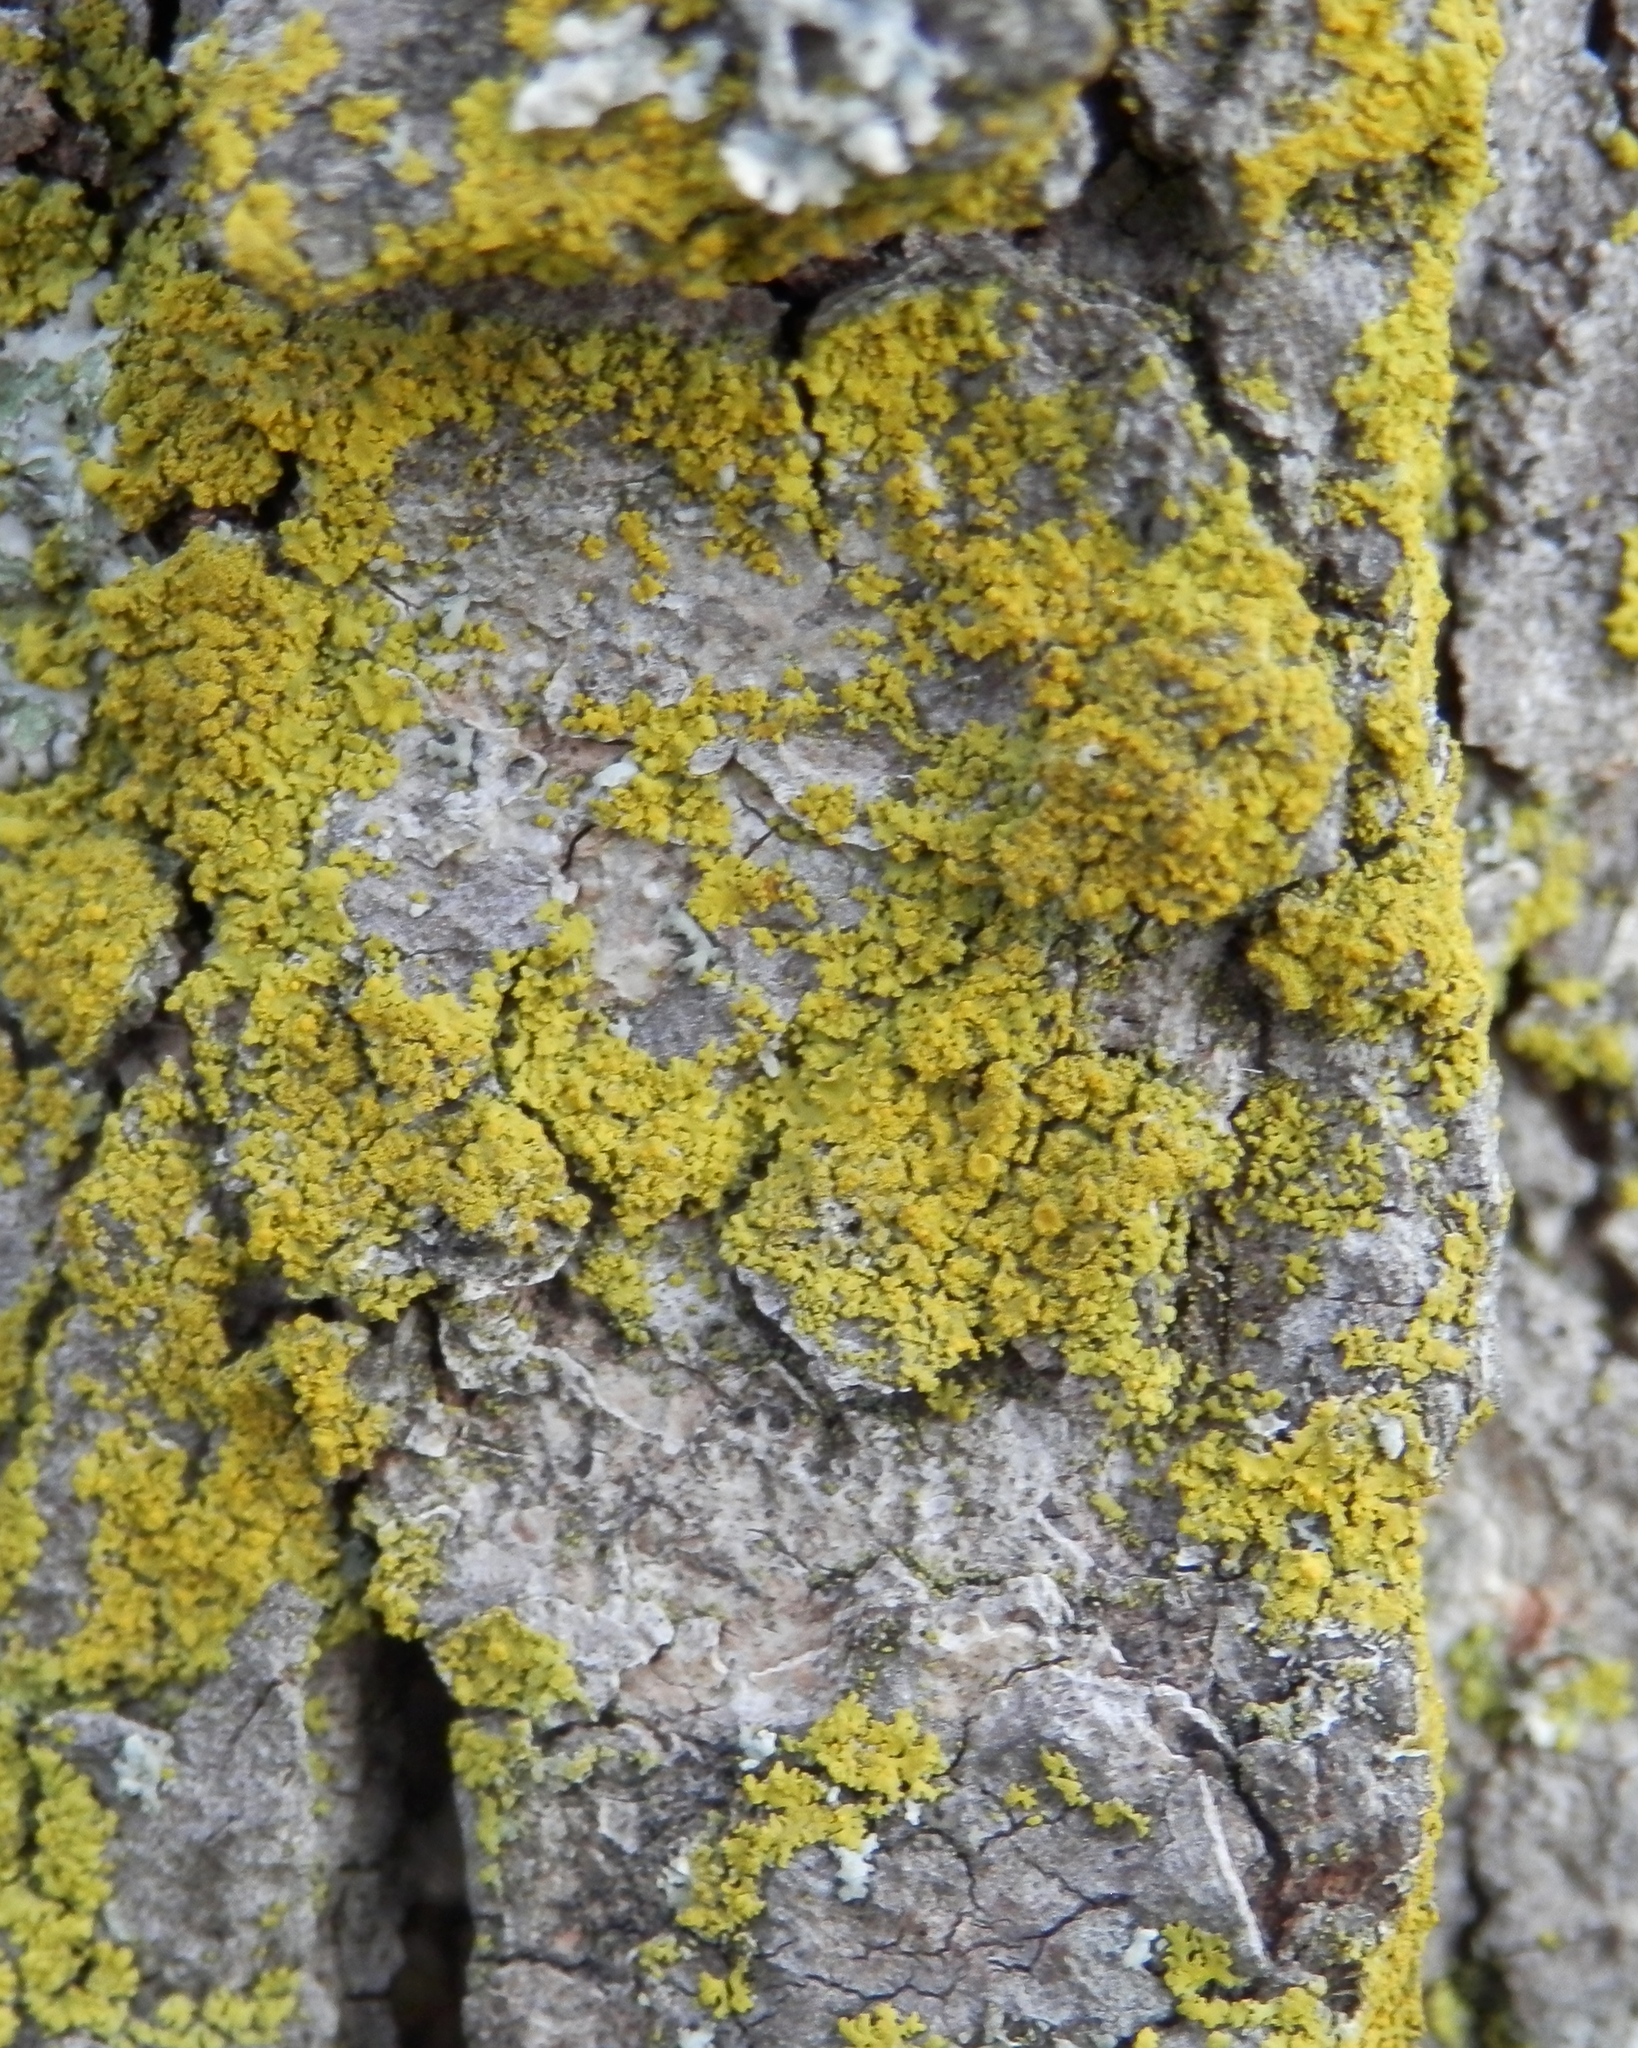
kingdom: Fungi
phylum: Ascomycota
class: Candelariomycetes
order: Candelariales
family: Candelariaceae
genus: Candelaria
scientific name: Candelaria concolor
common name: Candleflame lichen
